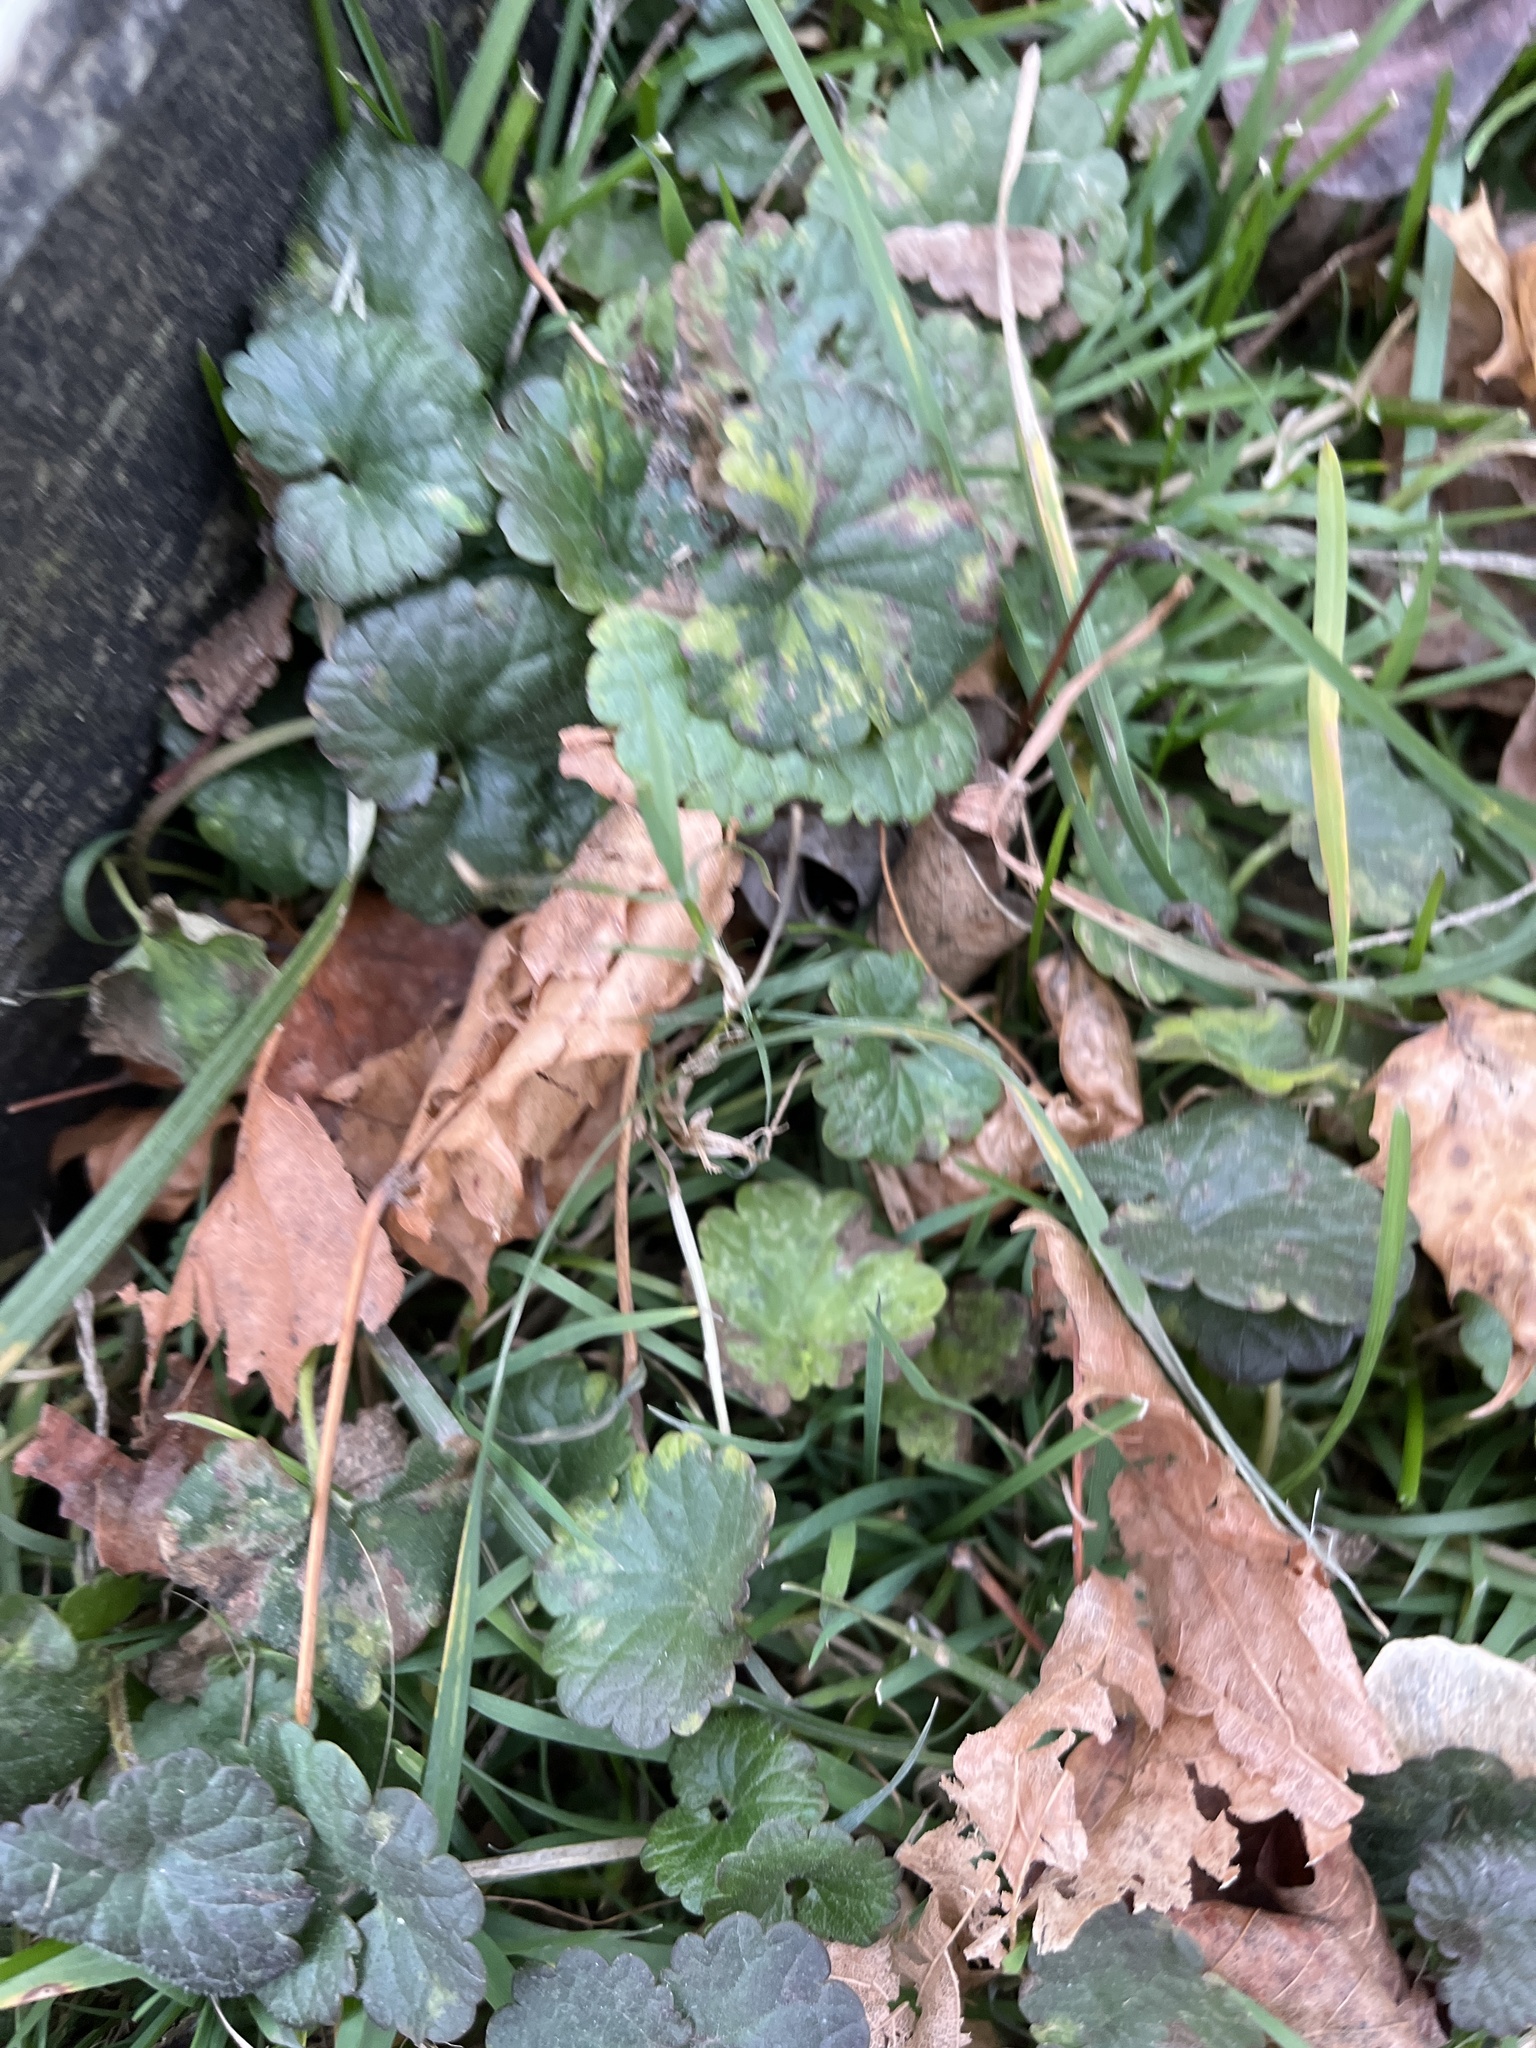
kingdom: Plantae
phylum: Tracheophyta
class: Magnoliopsida
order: Lamiales
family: Lamiaceae
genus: Glechoma
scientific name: Glechoma hederacea
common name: Ground ivy
